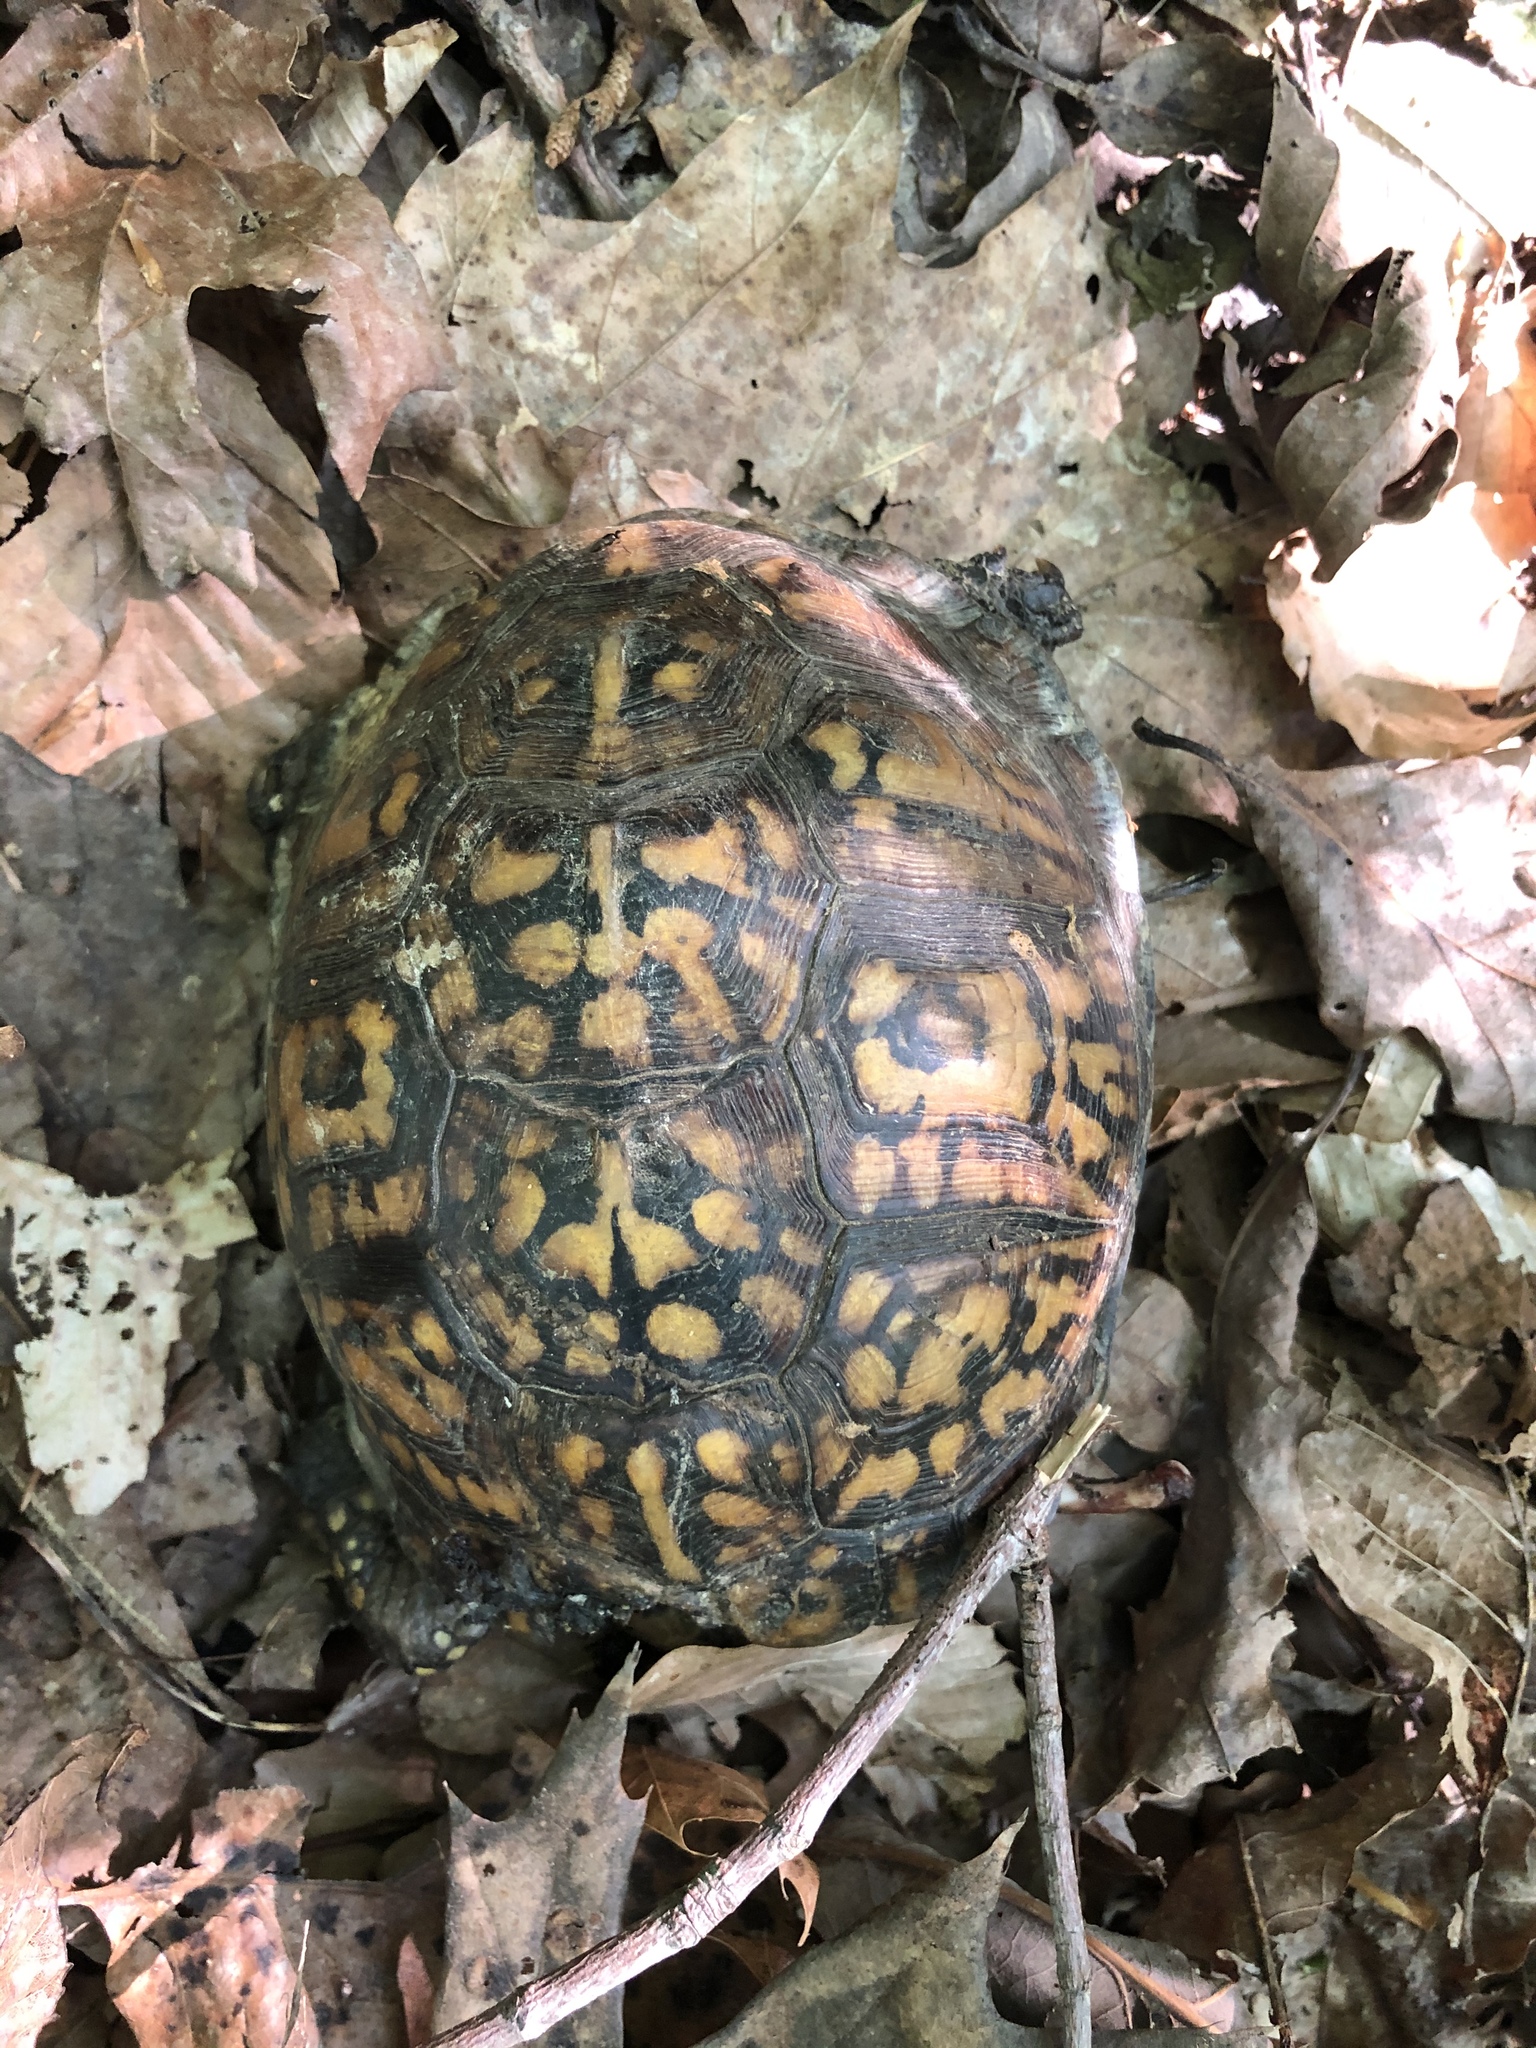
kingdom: Animalia
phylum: Chordata
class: Testudines
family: Emydidae
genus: Terrapene
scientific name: Terrapene carolina
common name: Common box turtle
